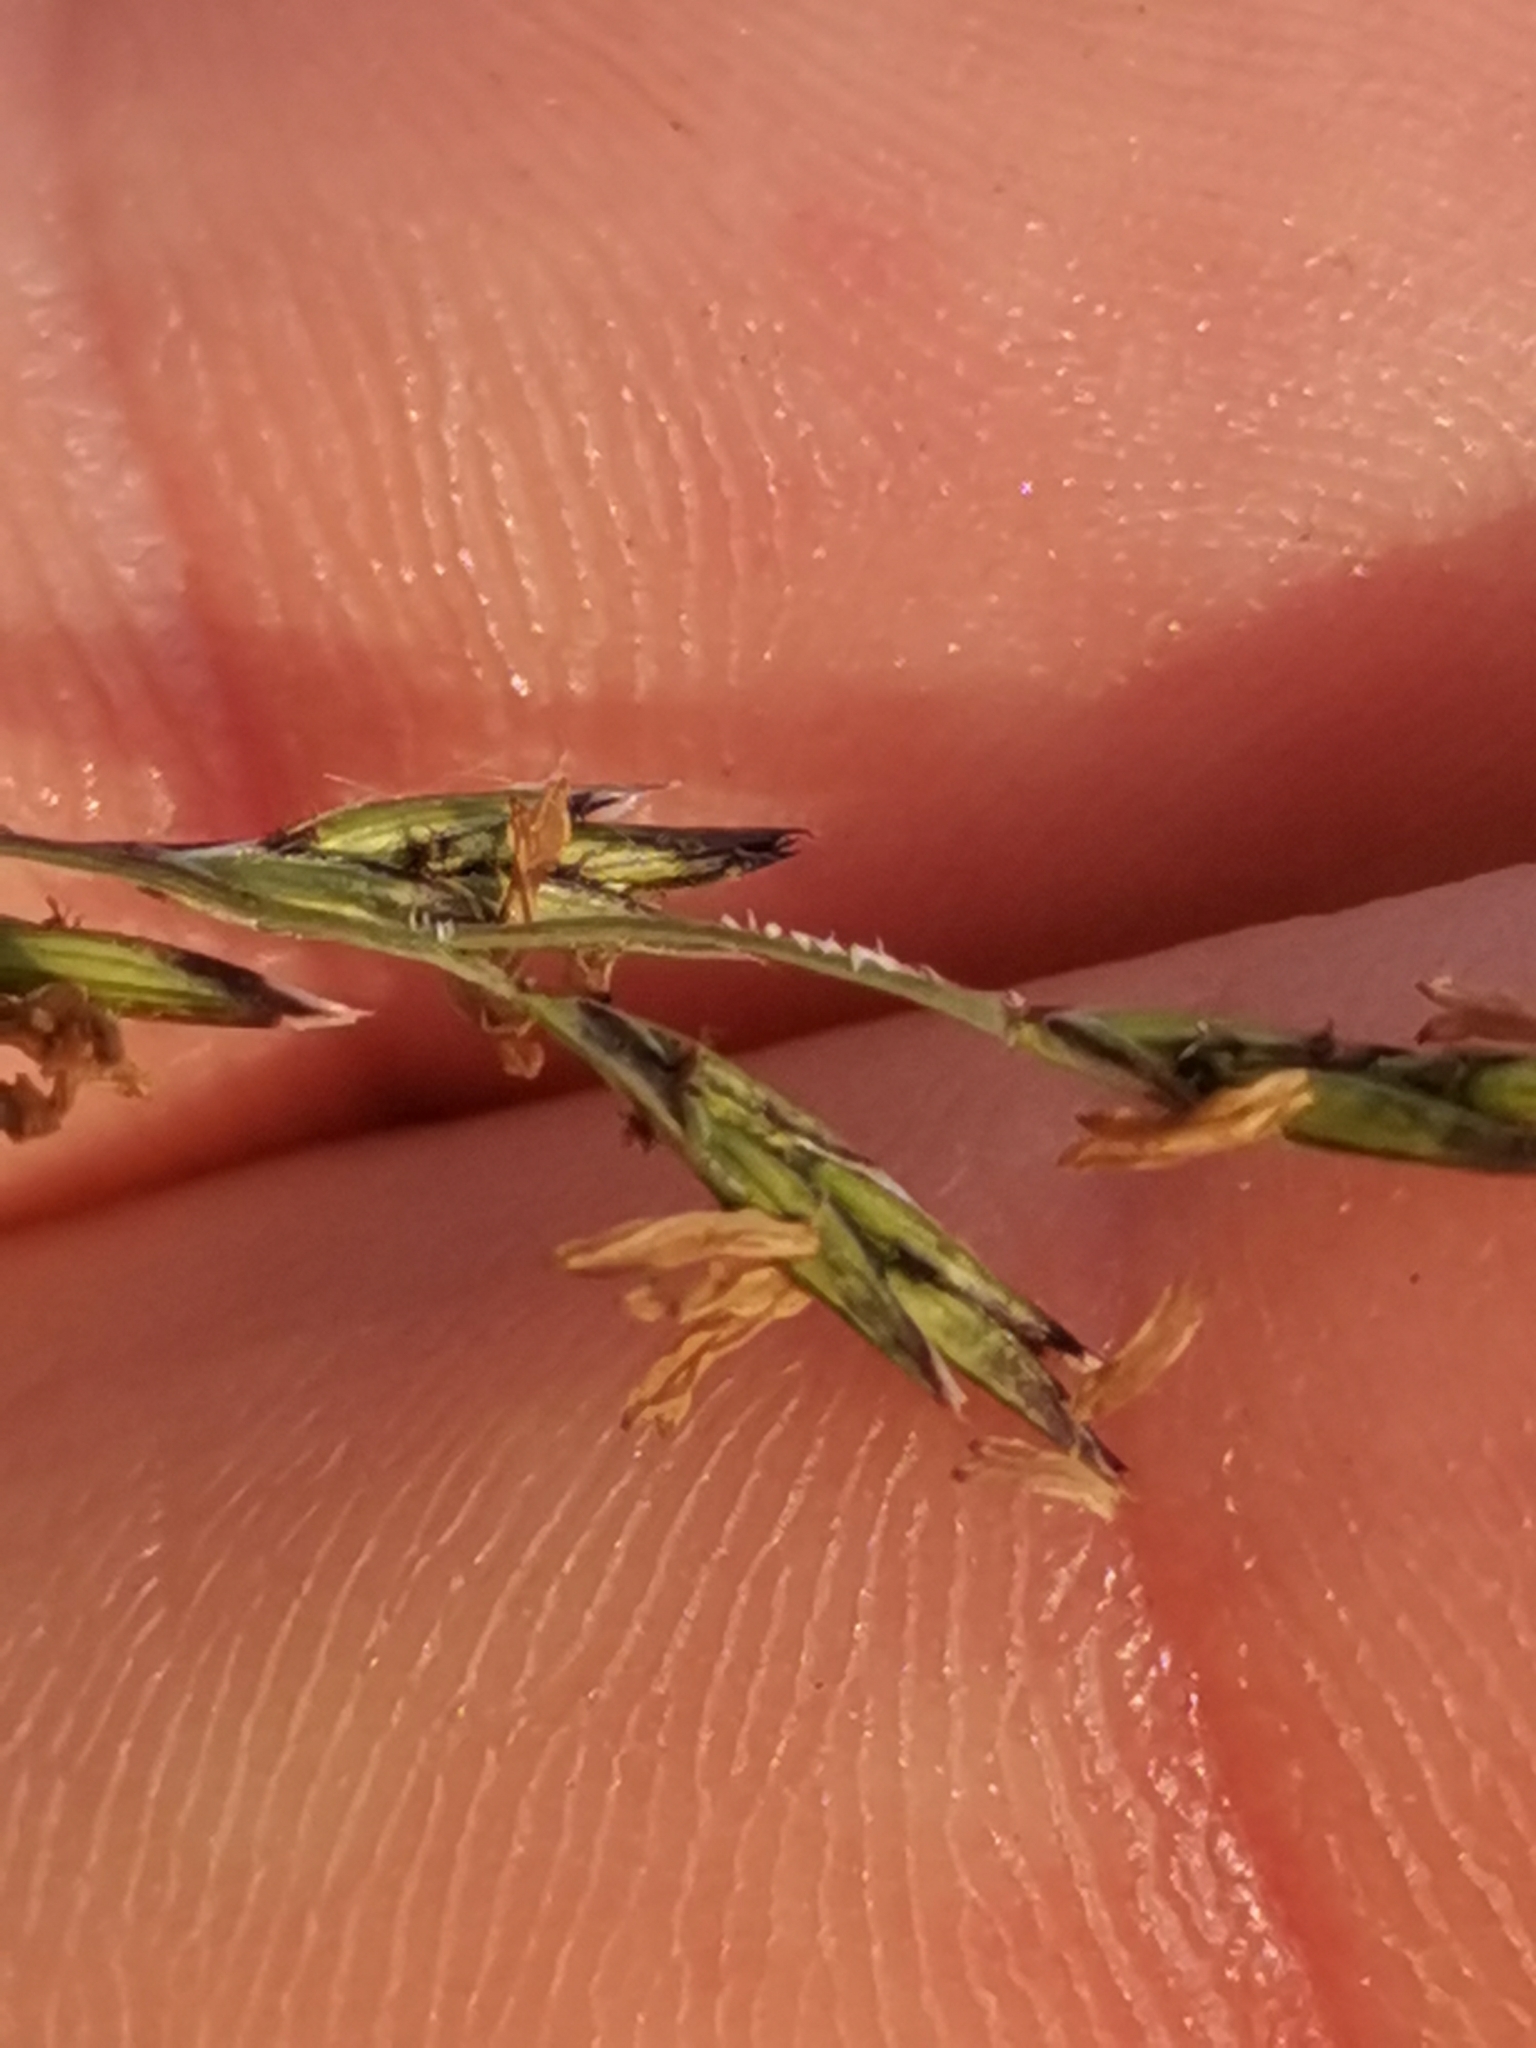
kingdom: Plantae
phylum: Tracheophyta
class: Liliopsida
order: Poales
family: Poaceae
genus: Cleistogenes
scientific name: Cleistogenes serotina
